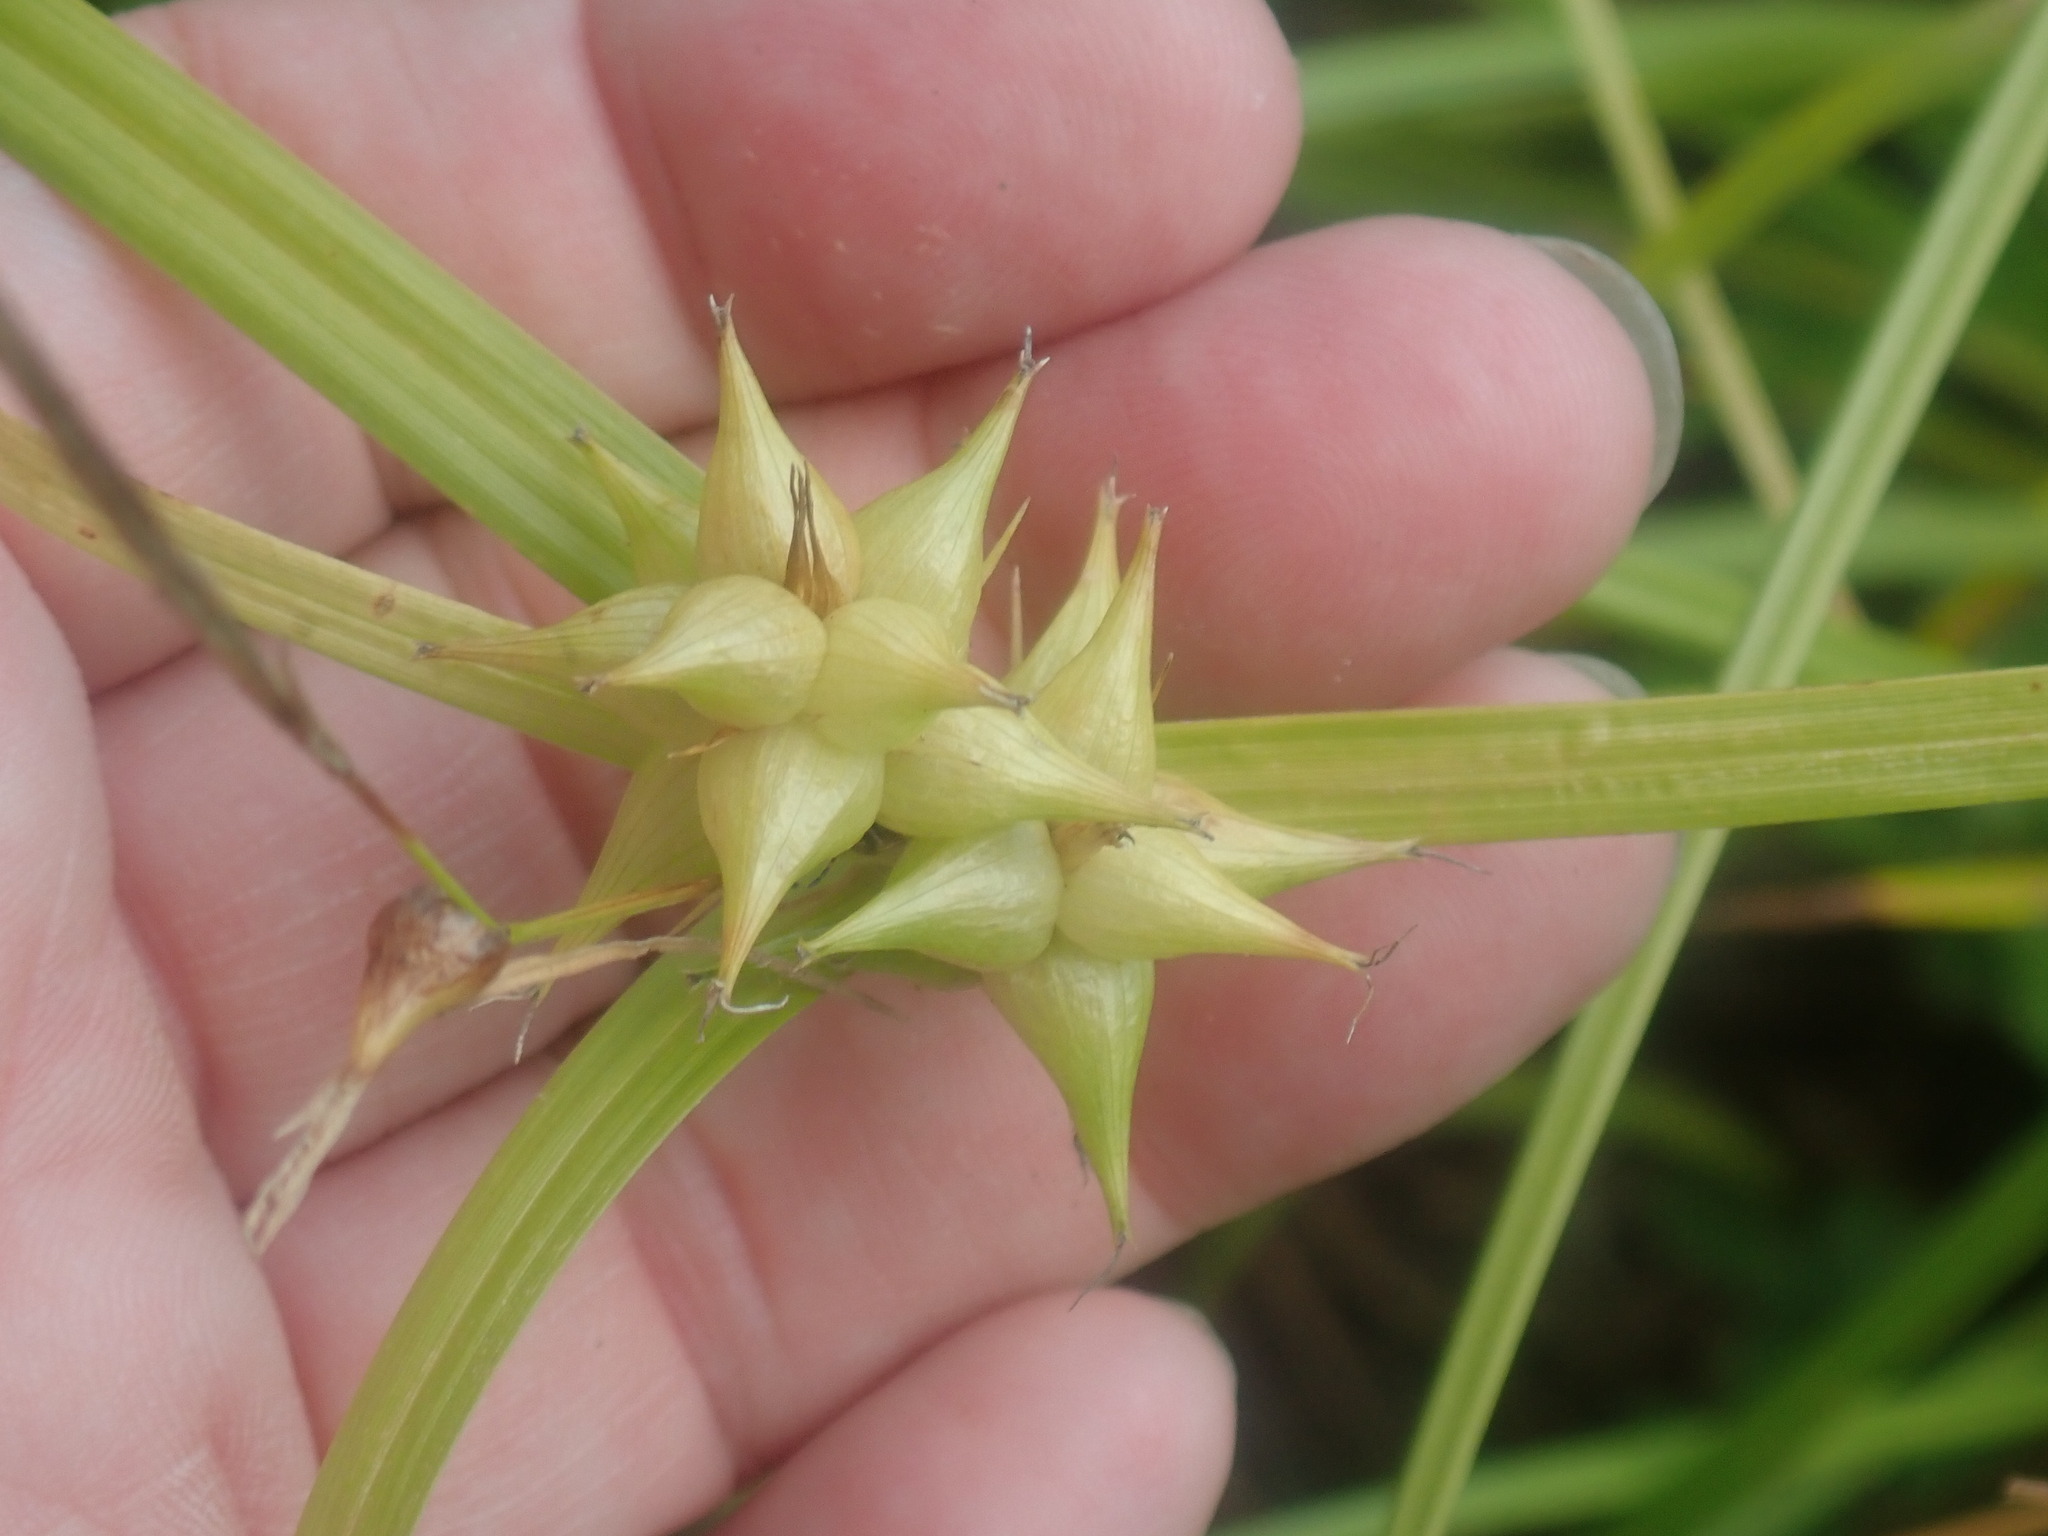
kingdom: Plantae
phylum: Tracheophyta
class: Liliopsida
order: Poales
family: Cyperaceae
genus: Carex
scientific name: Carex intumescens
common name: Greater bladder sedge
